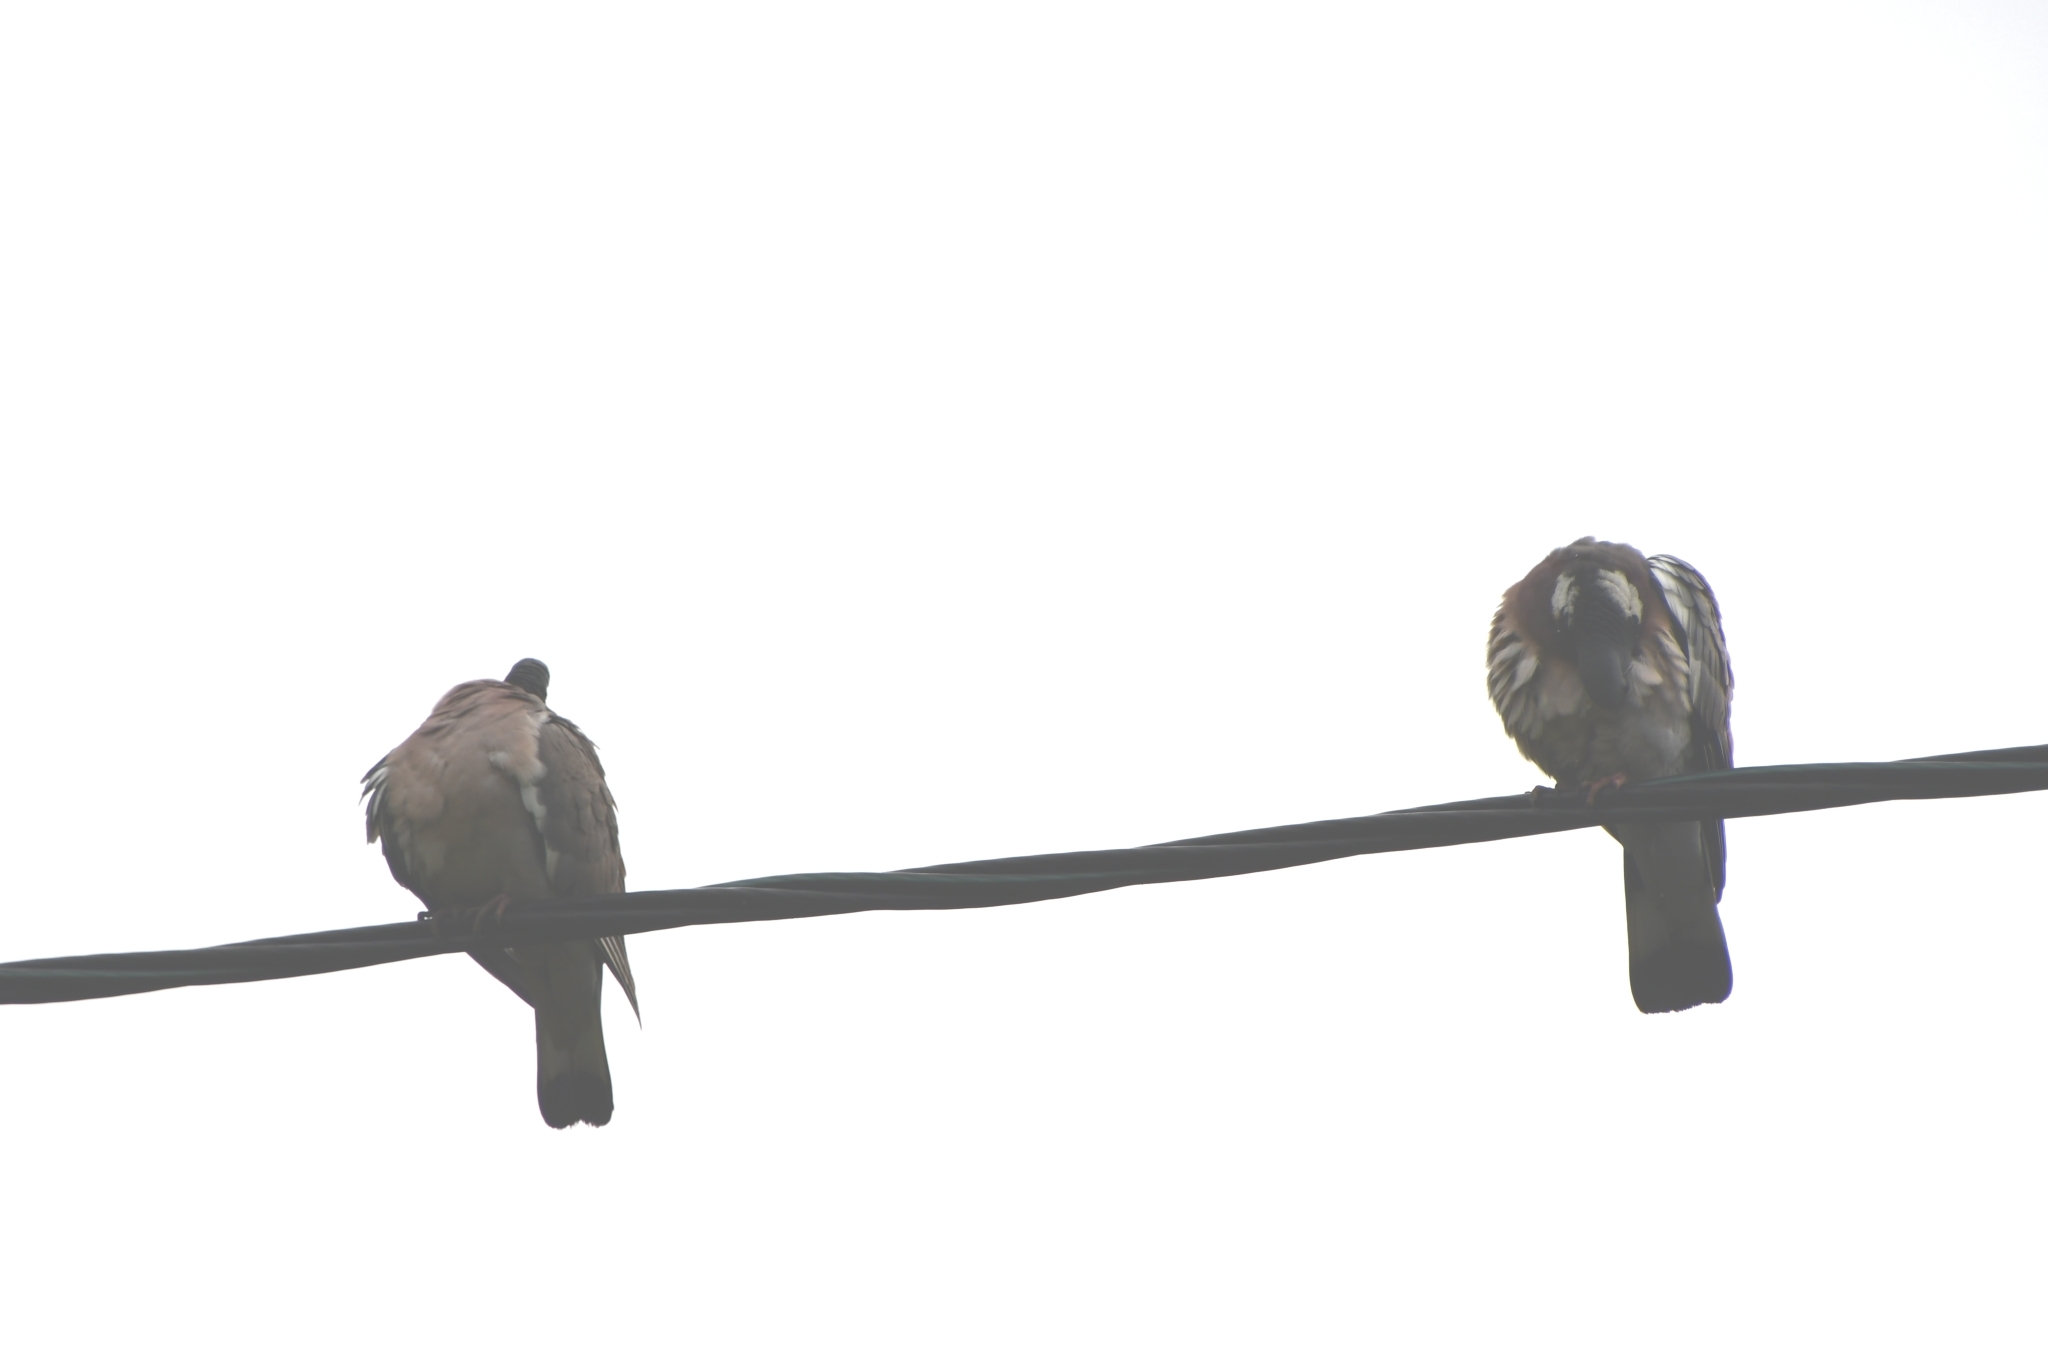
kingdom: Animalia
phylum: Chordata
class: Aves
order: Columbiformes
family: Columbidae
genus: Columba
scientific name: Columba palumbus
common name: Common wood pigeon
